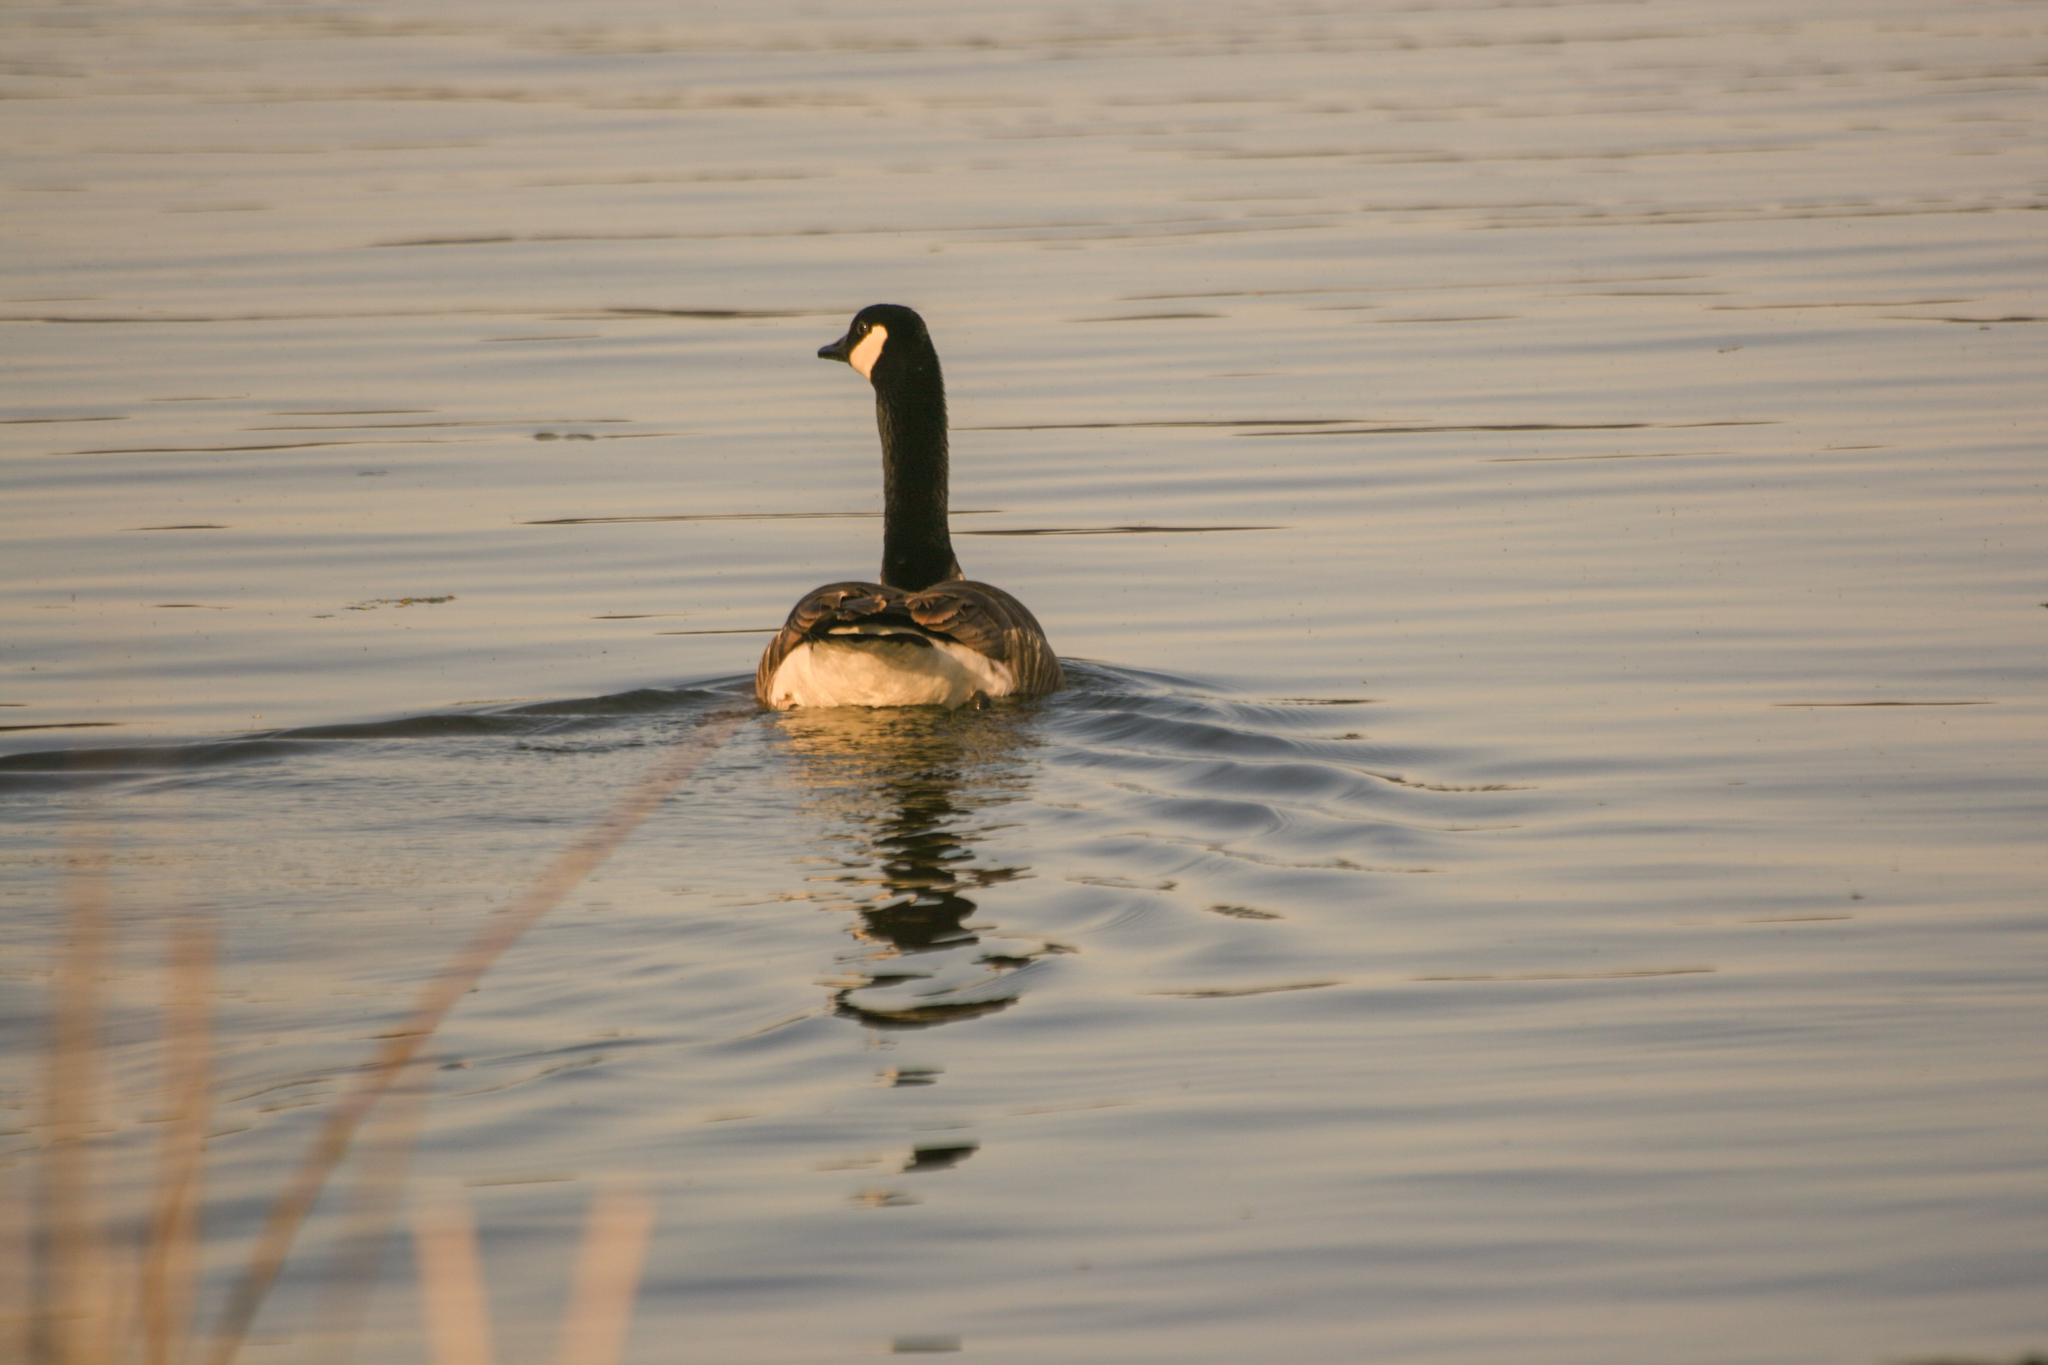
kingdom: Animalia
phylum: Chordata
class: Aves
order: Anseriformes
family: Anatidae
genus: Branta
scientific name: Branta canadensis
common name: Canada goose
